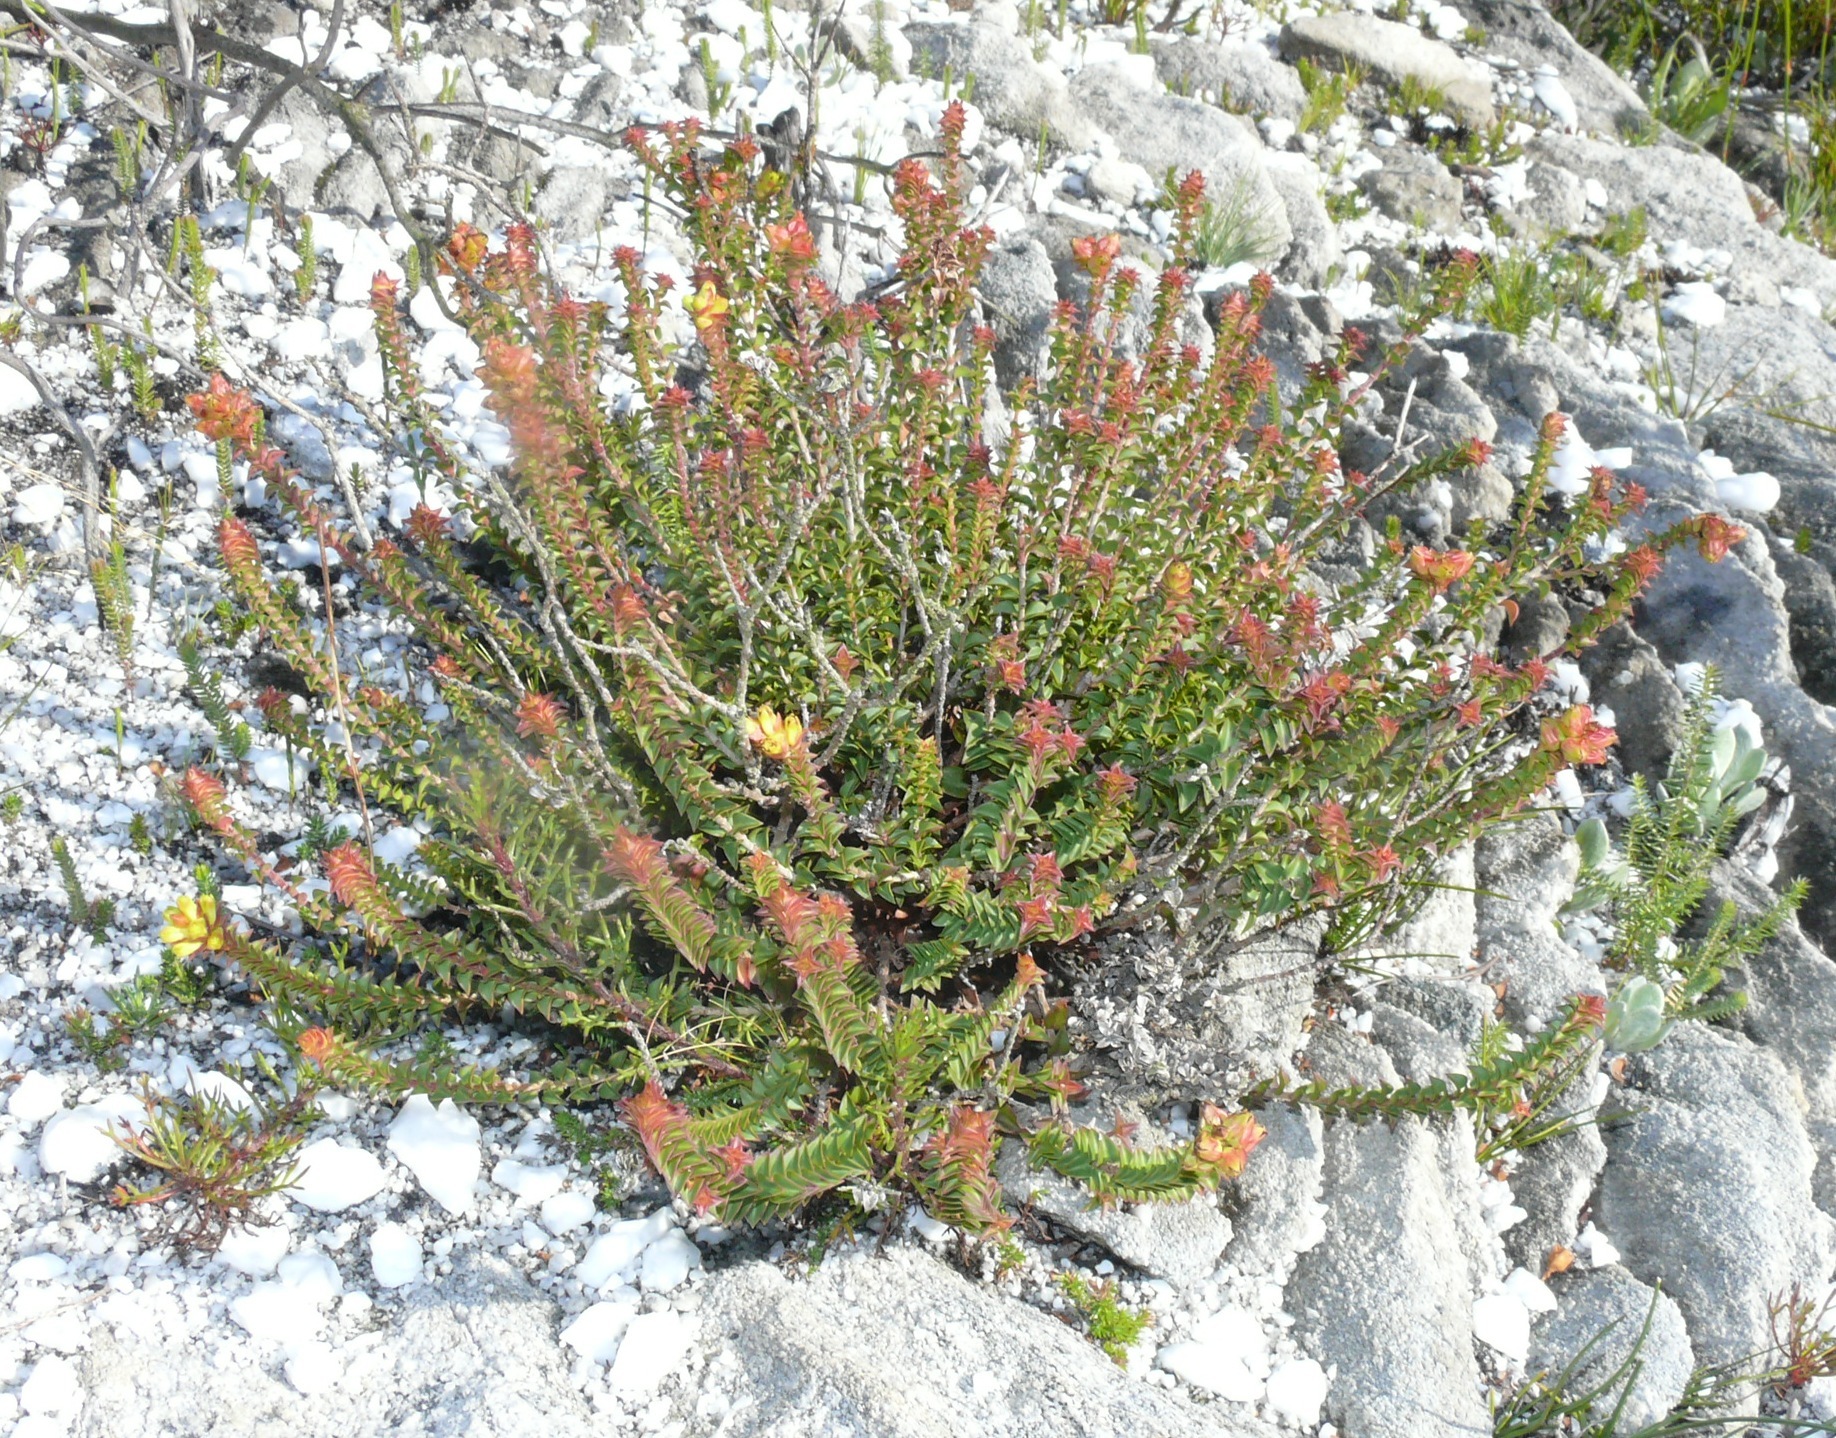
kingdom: Plantae
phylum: Tracheophyta
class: Magnoliopsida
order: Myrtales
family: Penaeaceae
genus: Penaea
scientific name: Penaea mucronata
